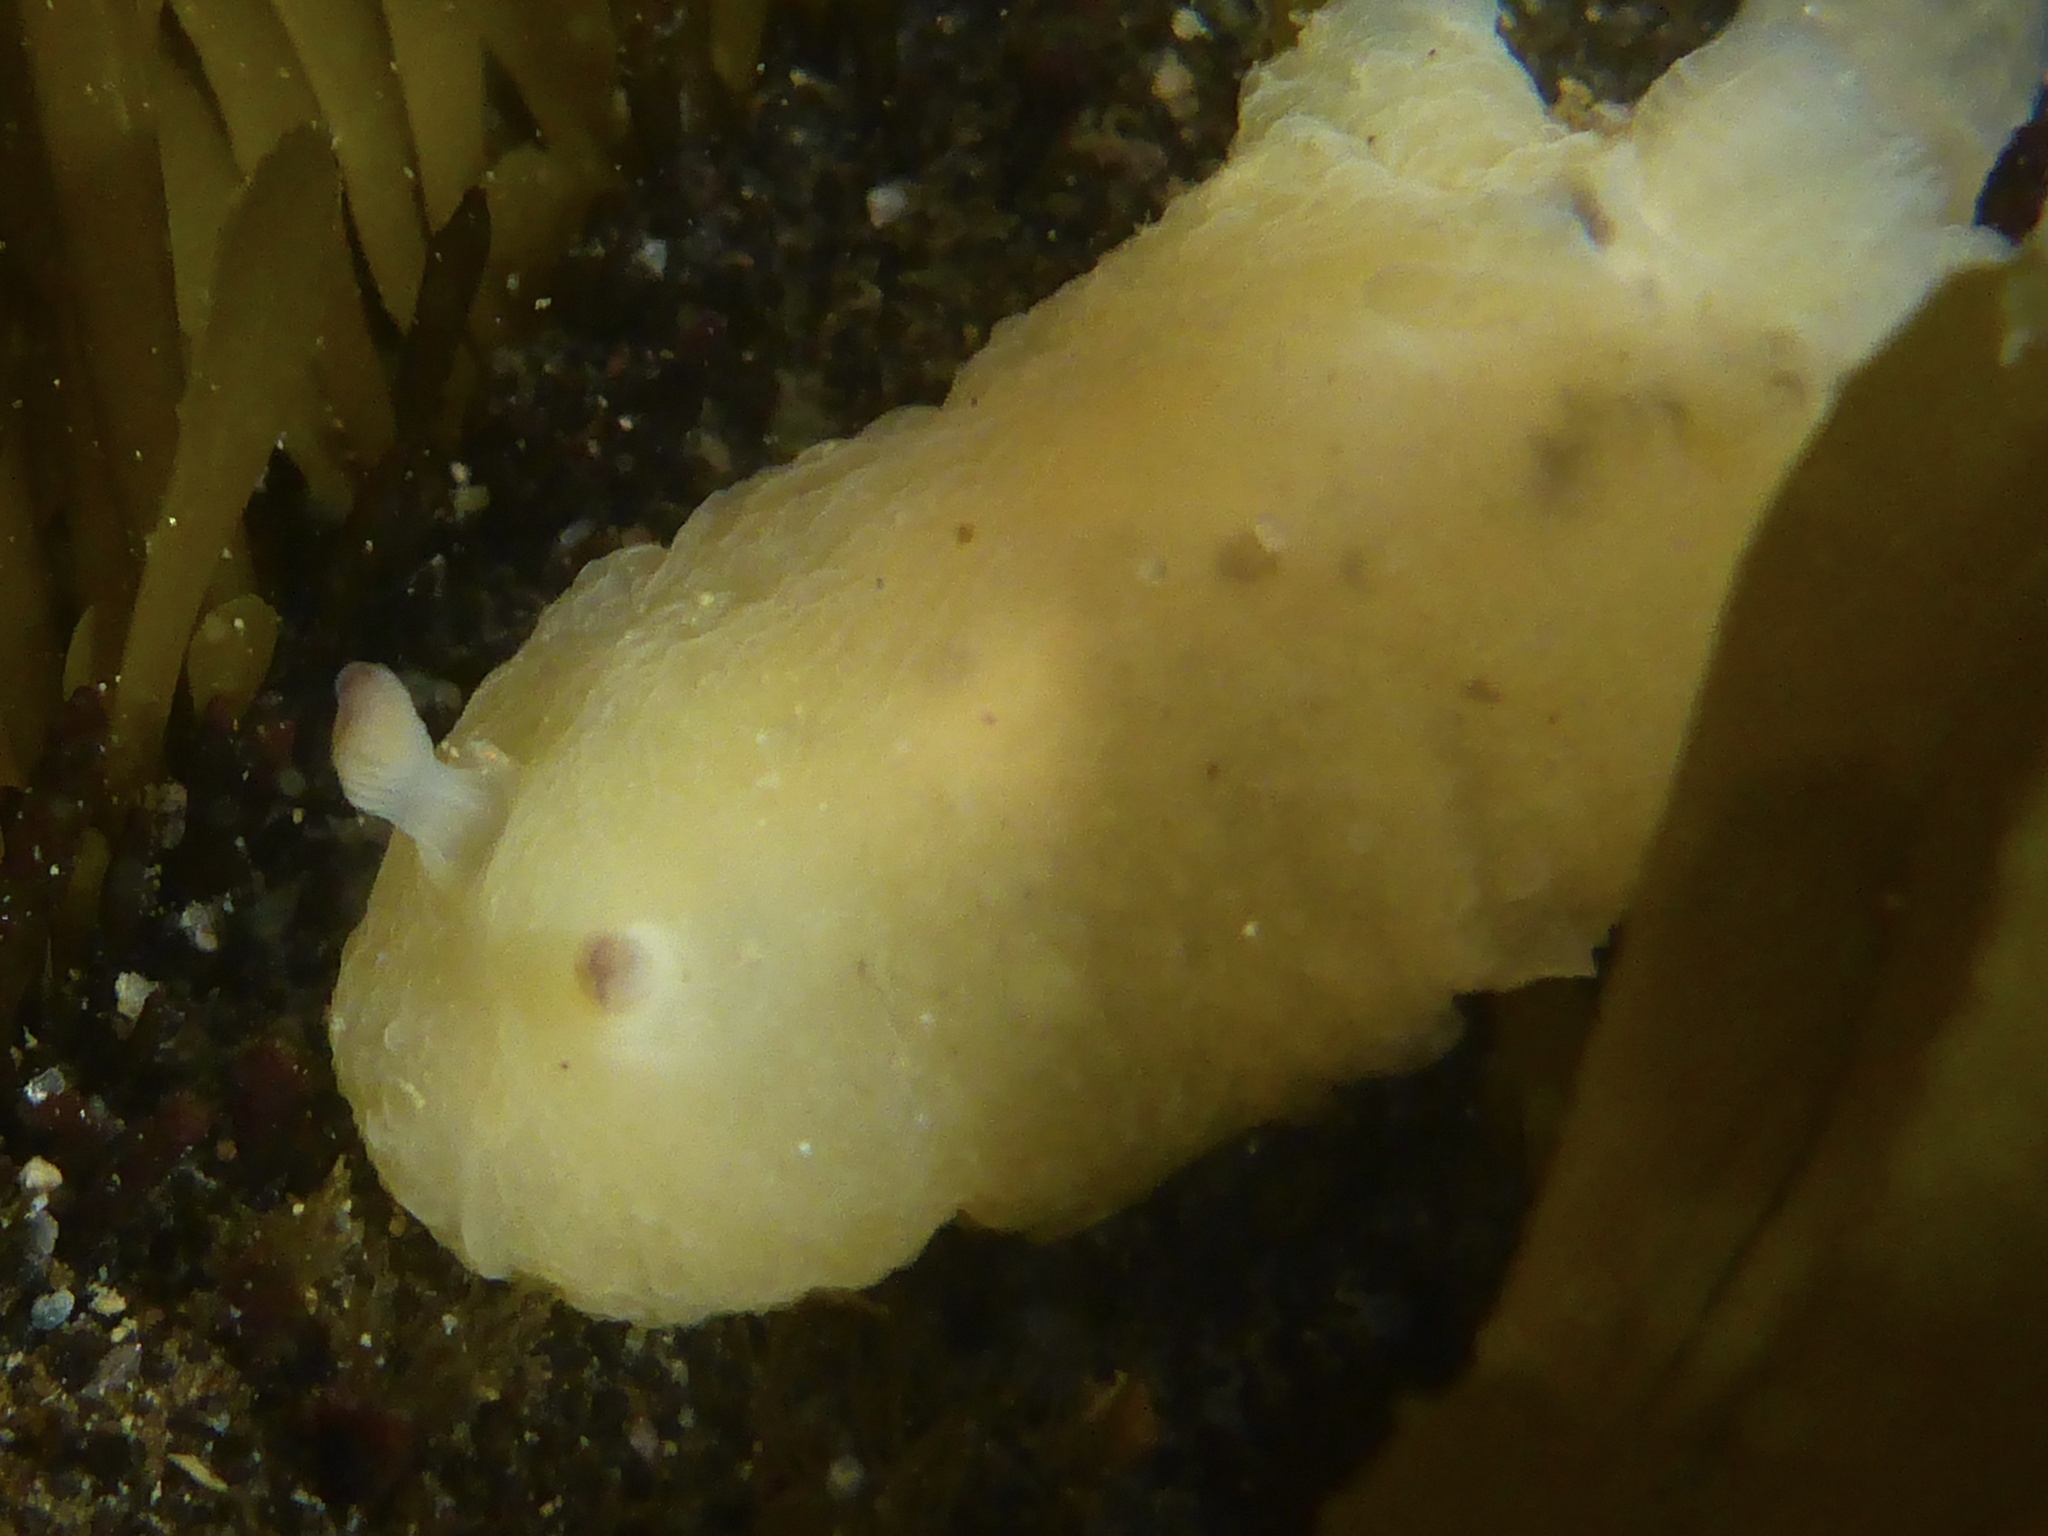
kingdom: Animalia
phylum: Mollusca
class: Gastropoda
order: Nudibranchia
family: Actinocyclidae
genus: Hallaxa
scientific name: Hallaxa chani
